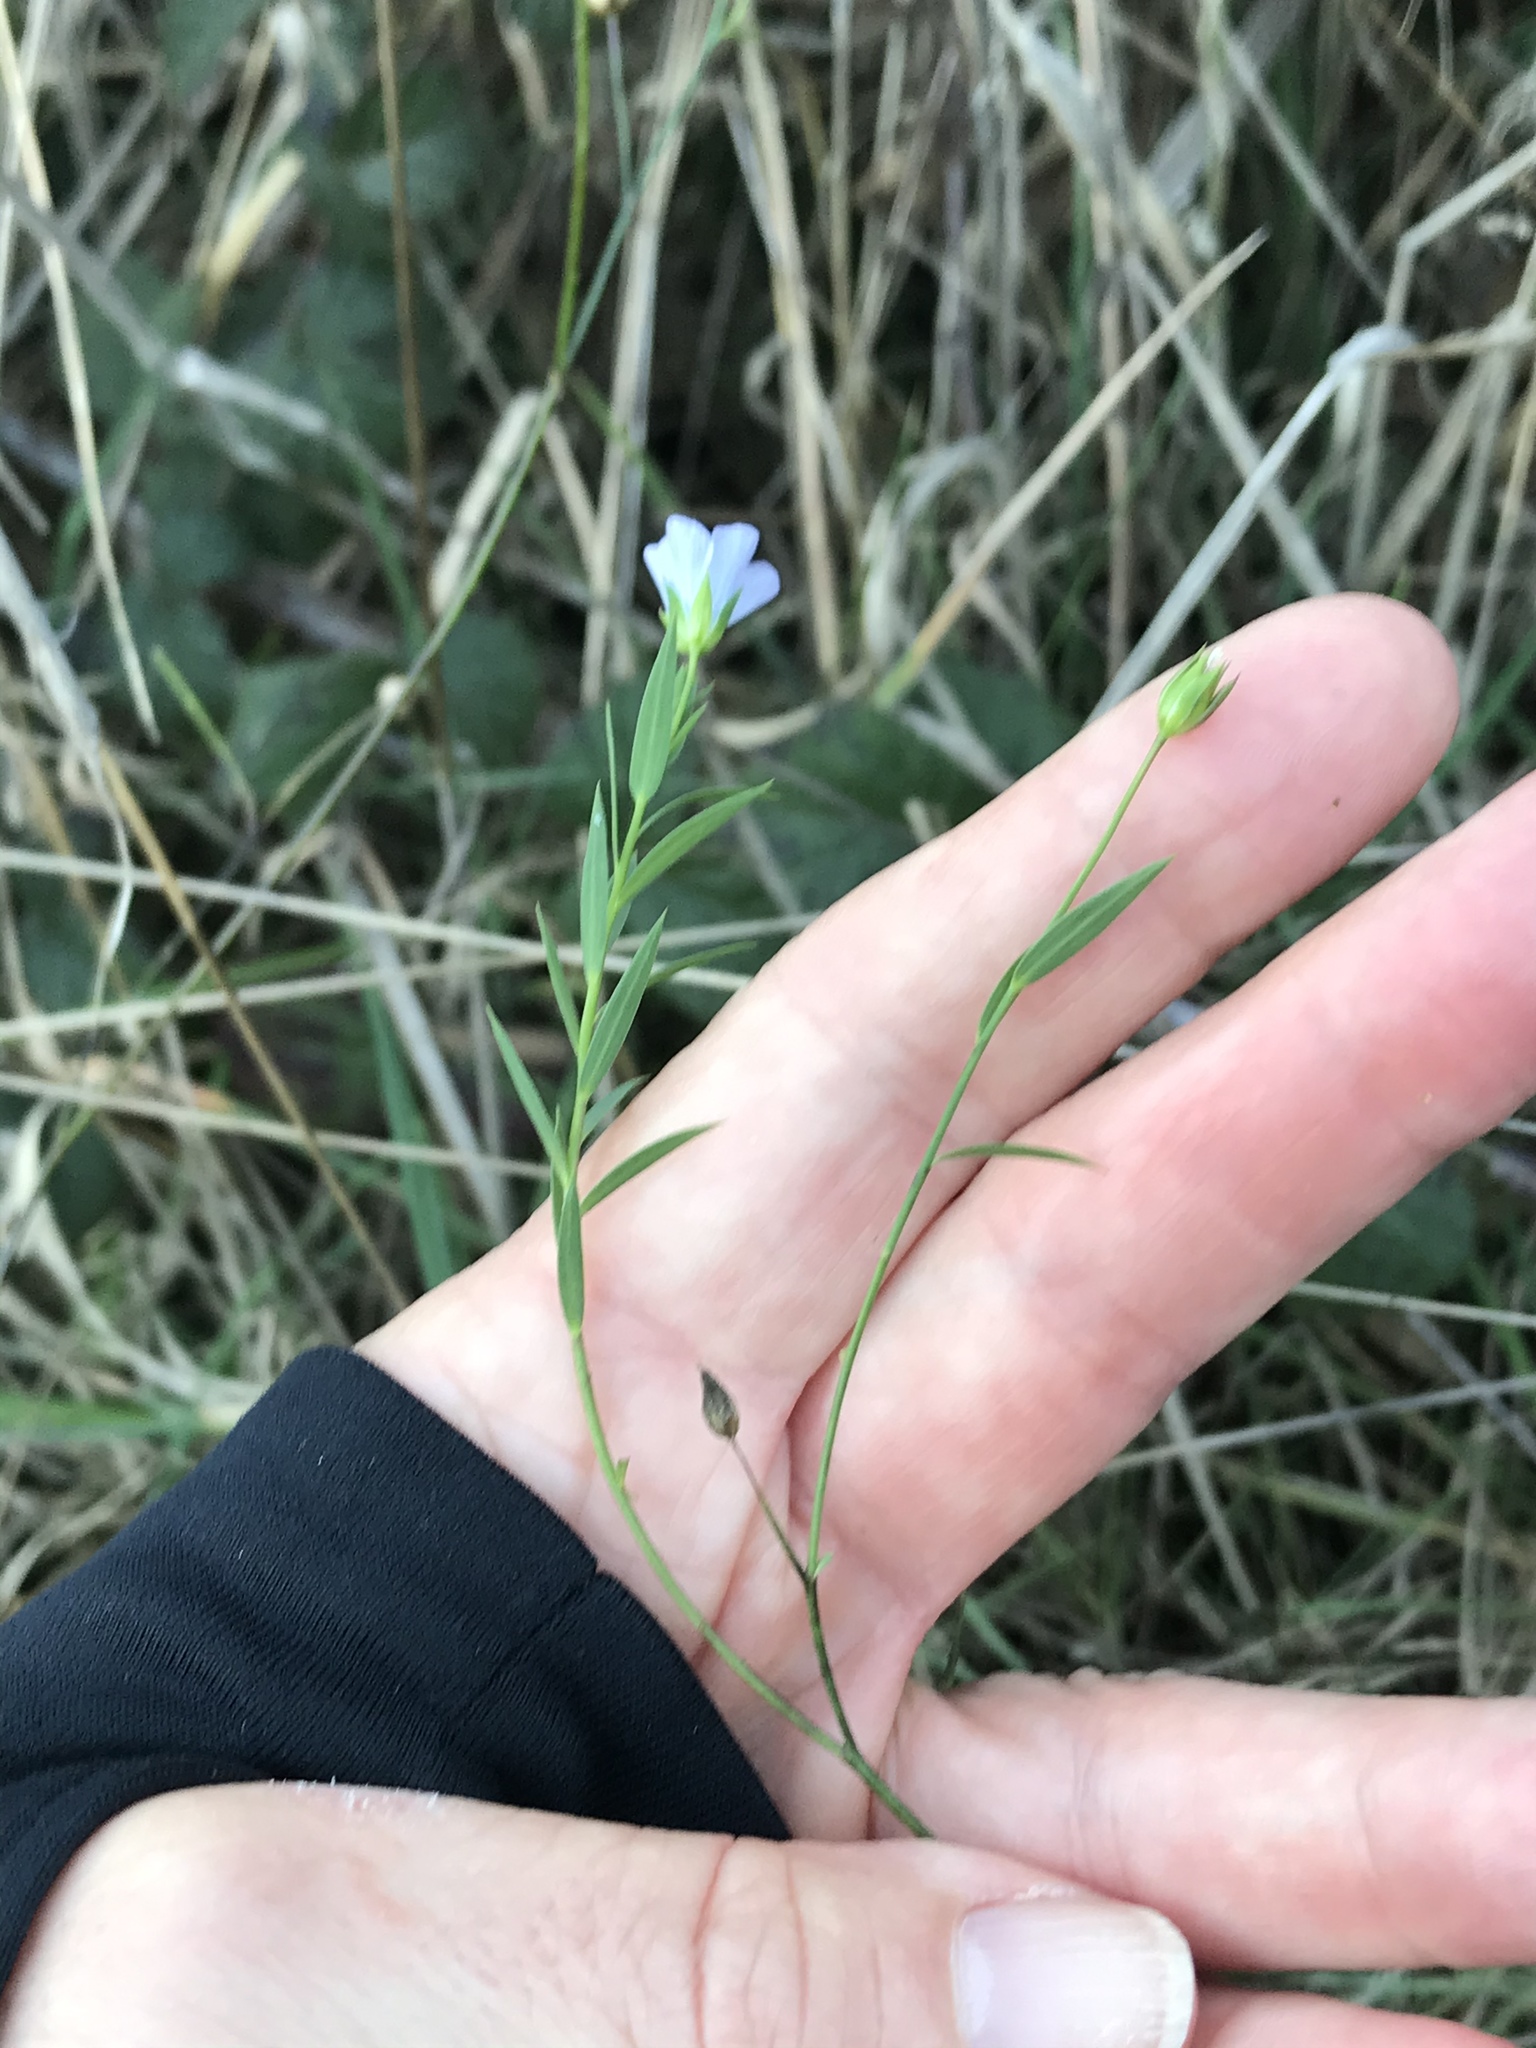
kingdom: Plantae
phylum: Tracheophyta
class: Magnoliopsida
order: Malpighiales
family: Linaceae
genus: Linum
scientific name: Linum bienne
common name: Pale flax
